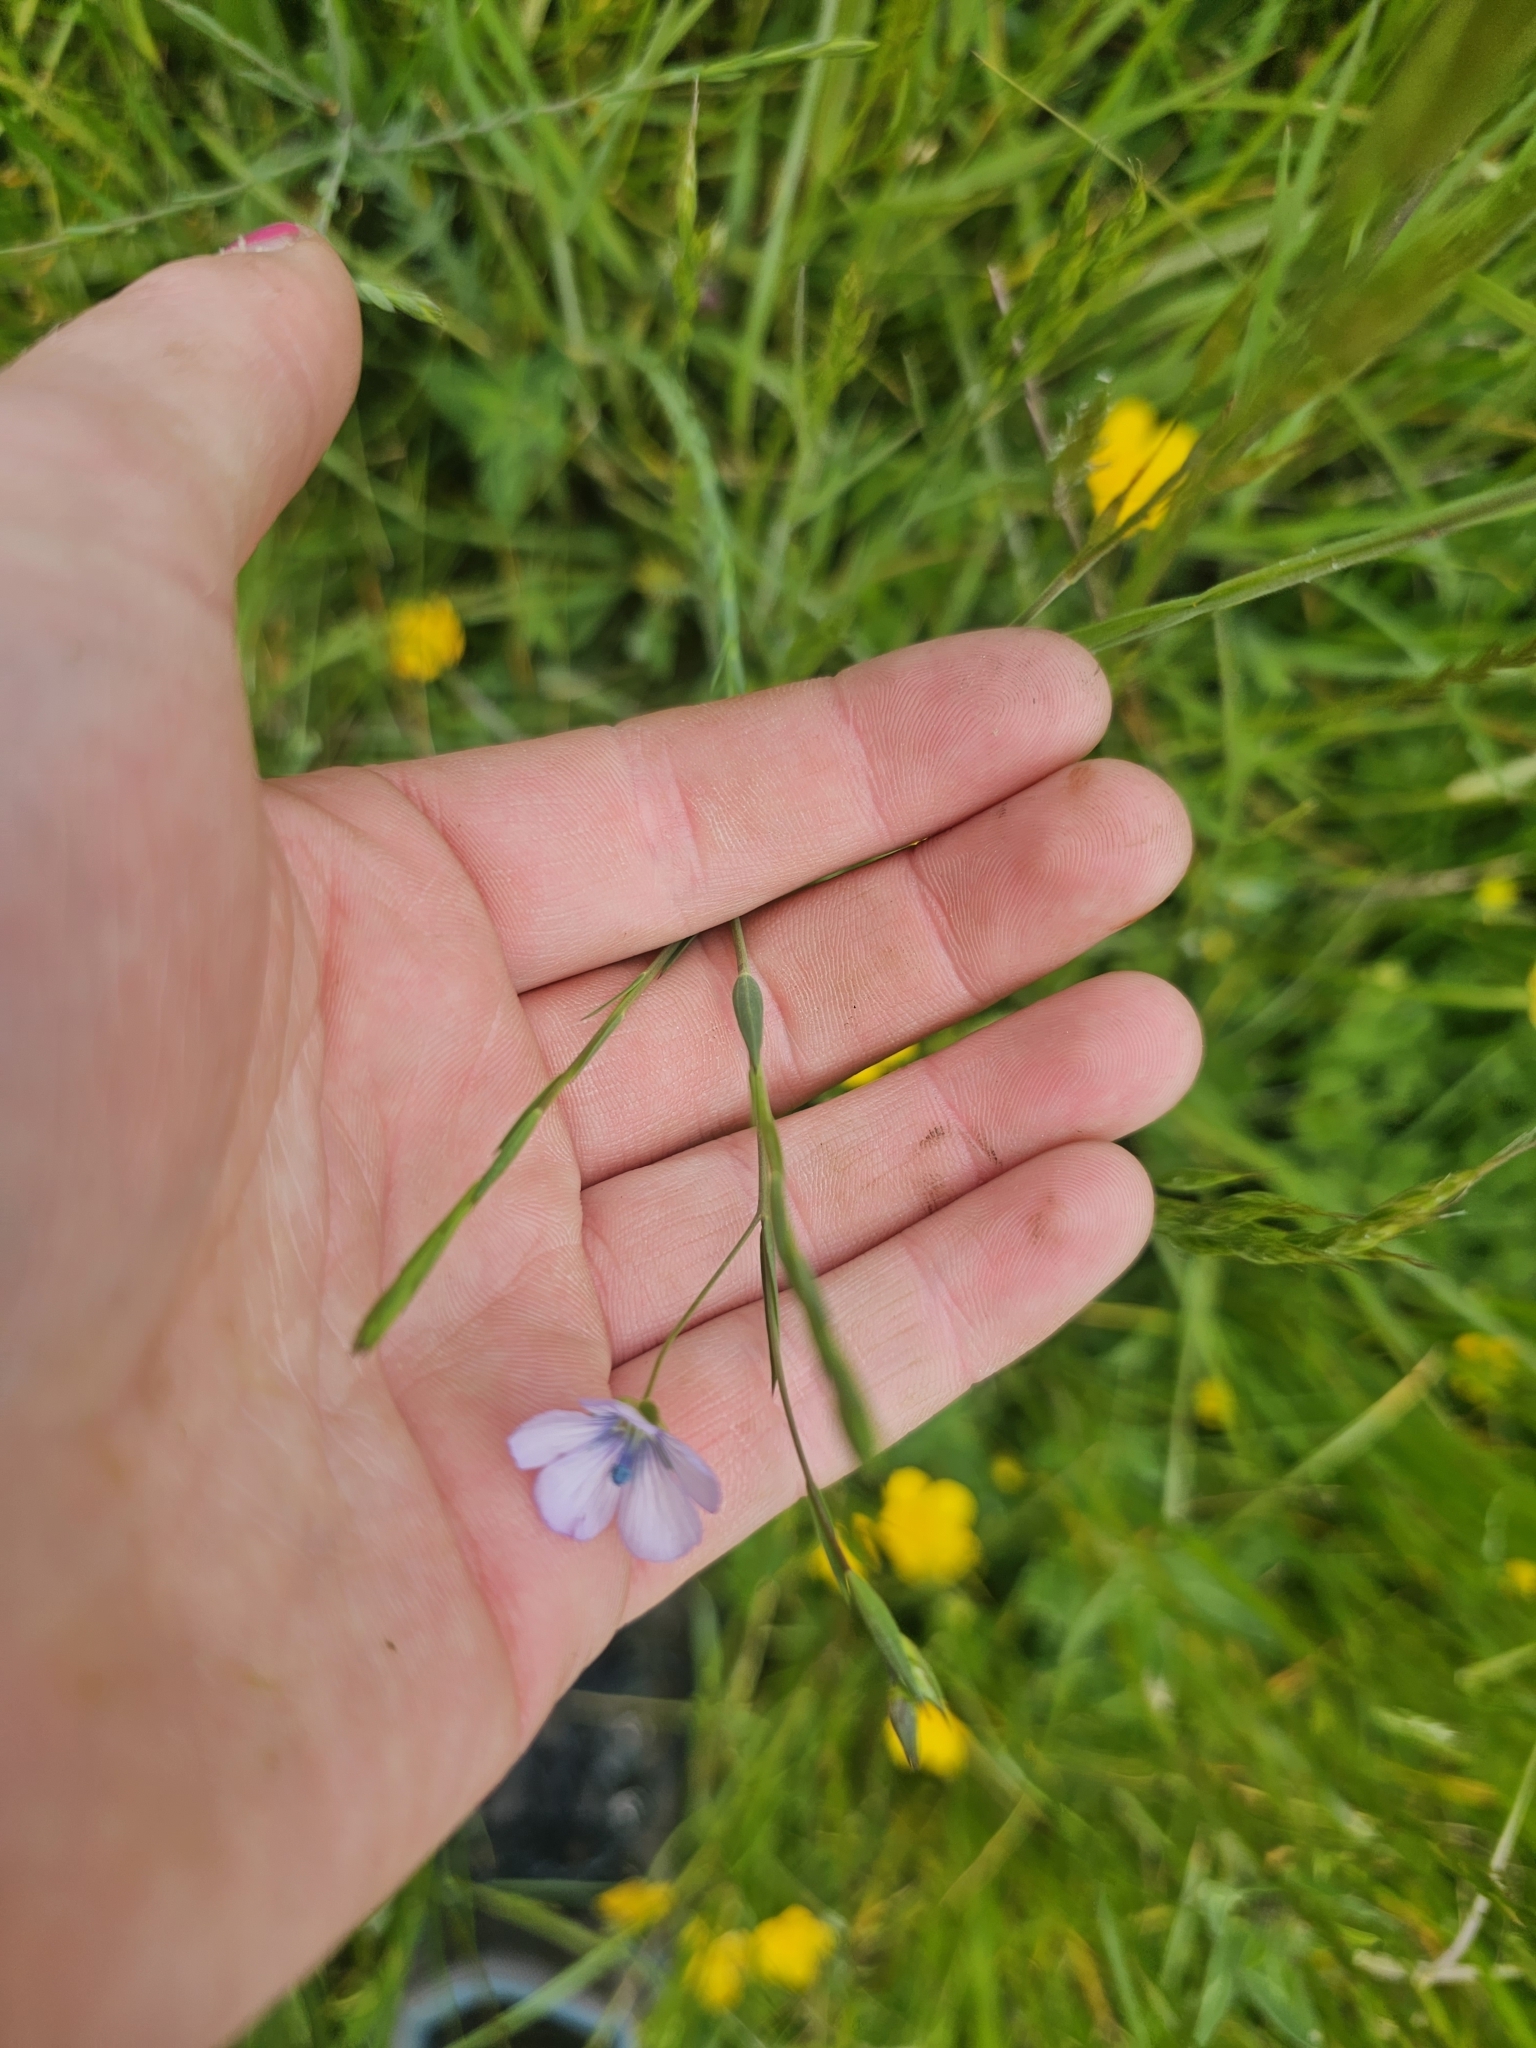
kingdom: Plantae
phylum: Tracheophyta
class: Magnoliopsida
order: Malpighiales
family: Linaceae
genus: Linum
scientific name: Linum bienne
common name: Pale flax
